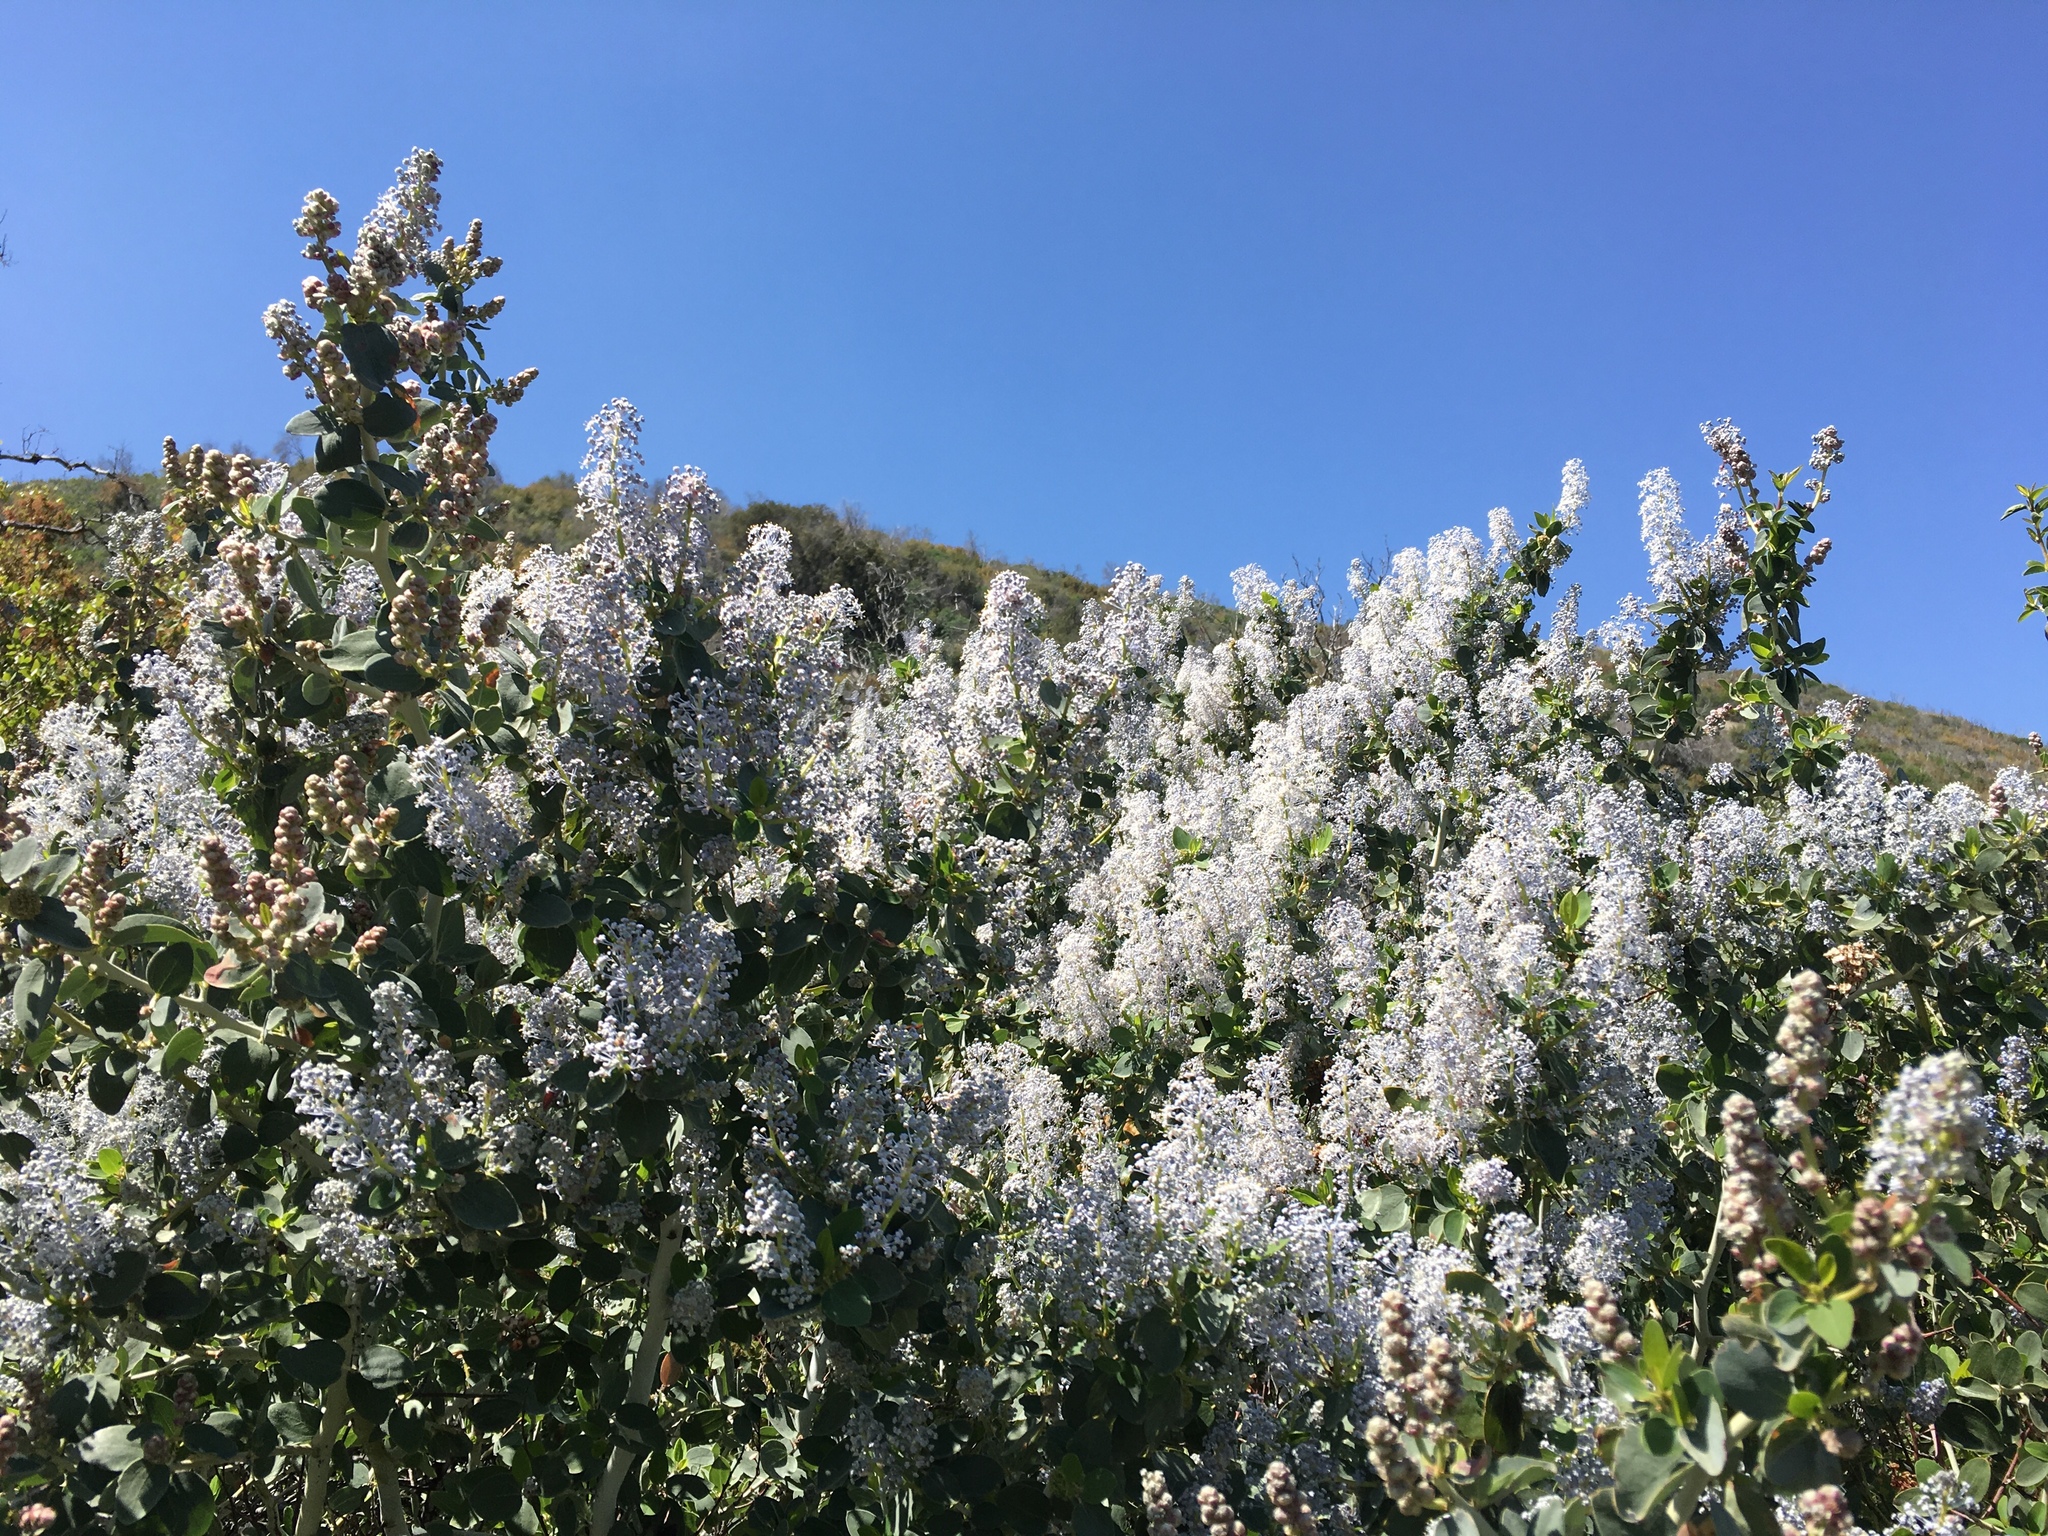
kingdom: Plantae
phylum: Tracheophyta
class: Magnoliopsida
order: Rosales
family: Rhamnaceae
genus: Ceanothus
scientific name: Ceanothus leucodermis
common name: Chaparral whitethorn
